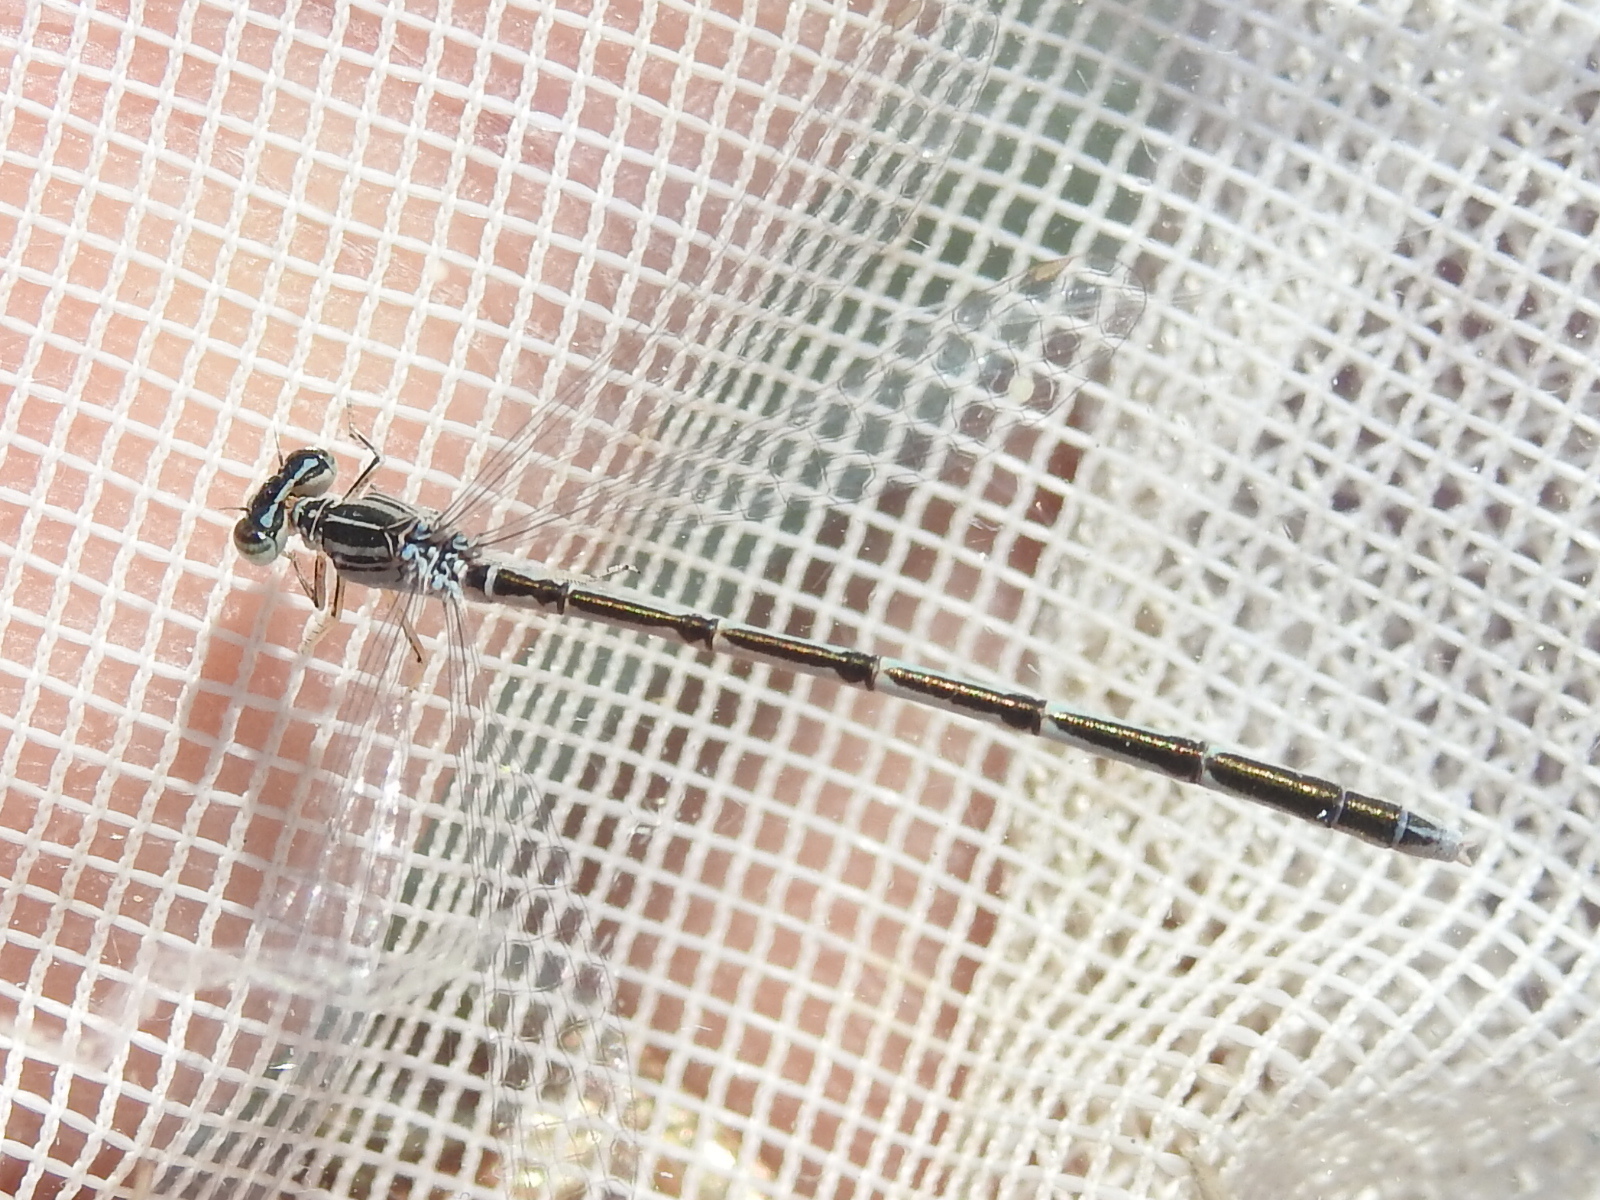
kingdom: Animalia
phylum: Arthropoda
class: Insecta
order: Odonata
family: Coenagrionidae
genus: Enallagma
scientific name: Enallagma basidens
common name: Double-striped bluet
